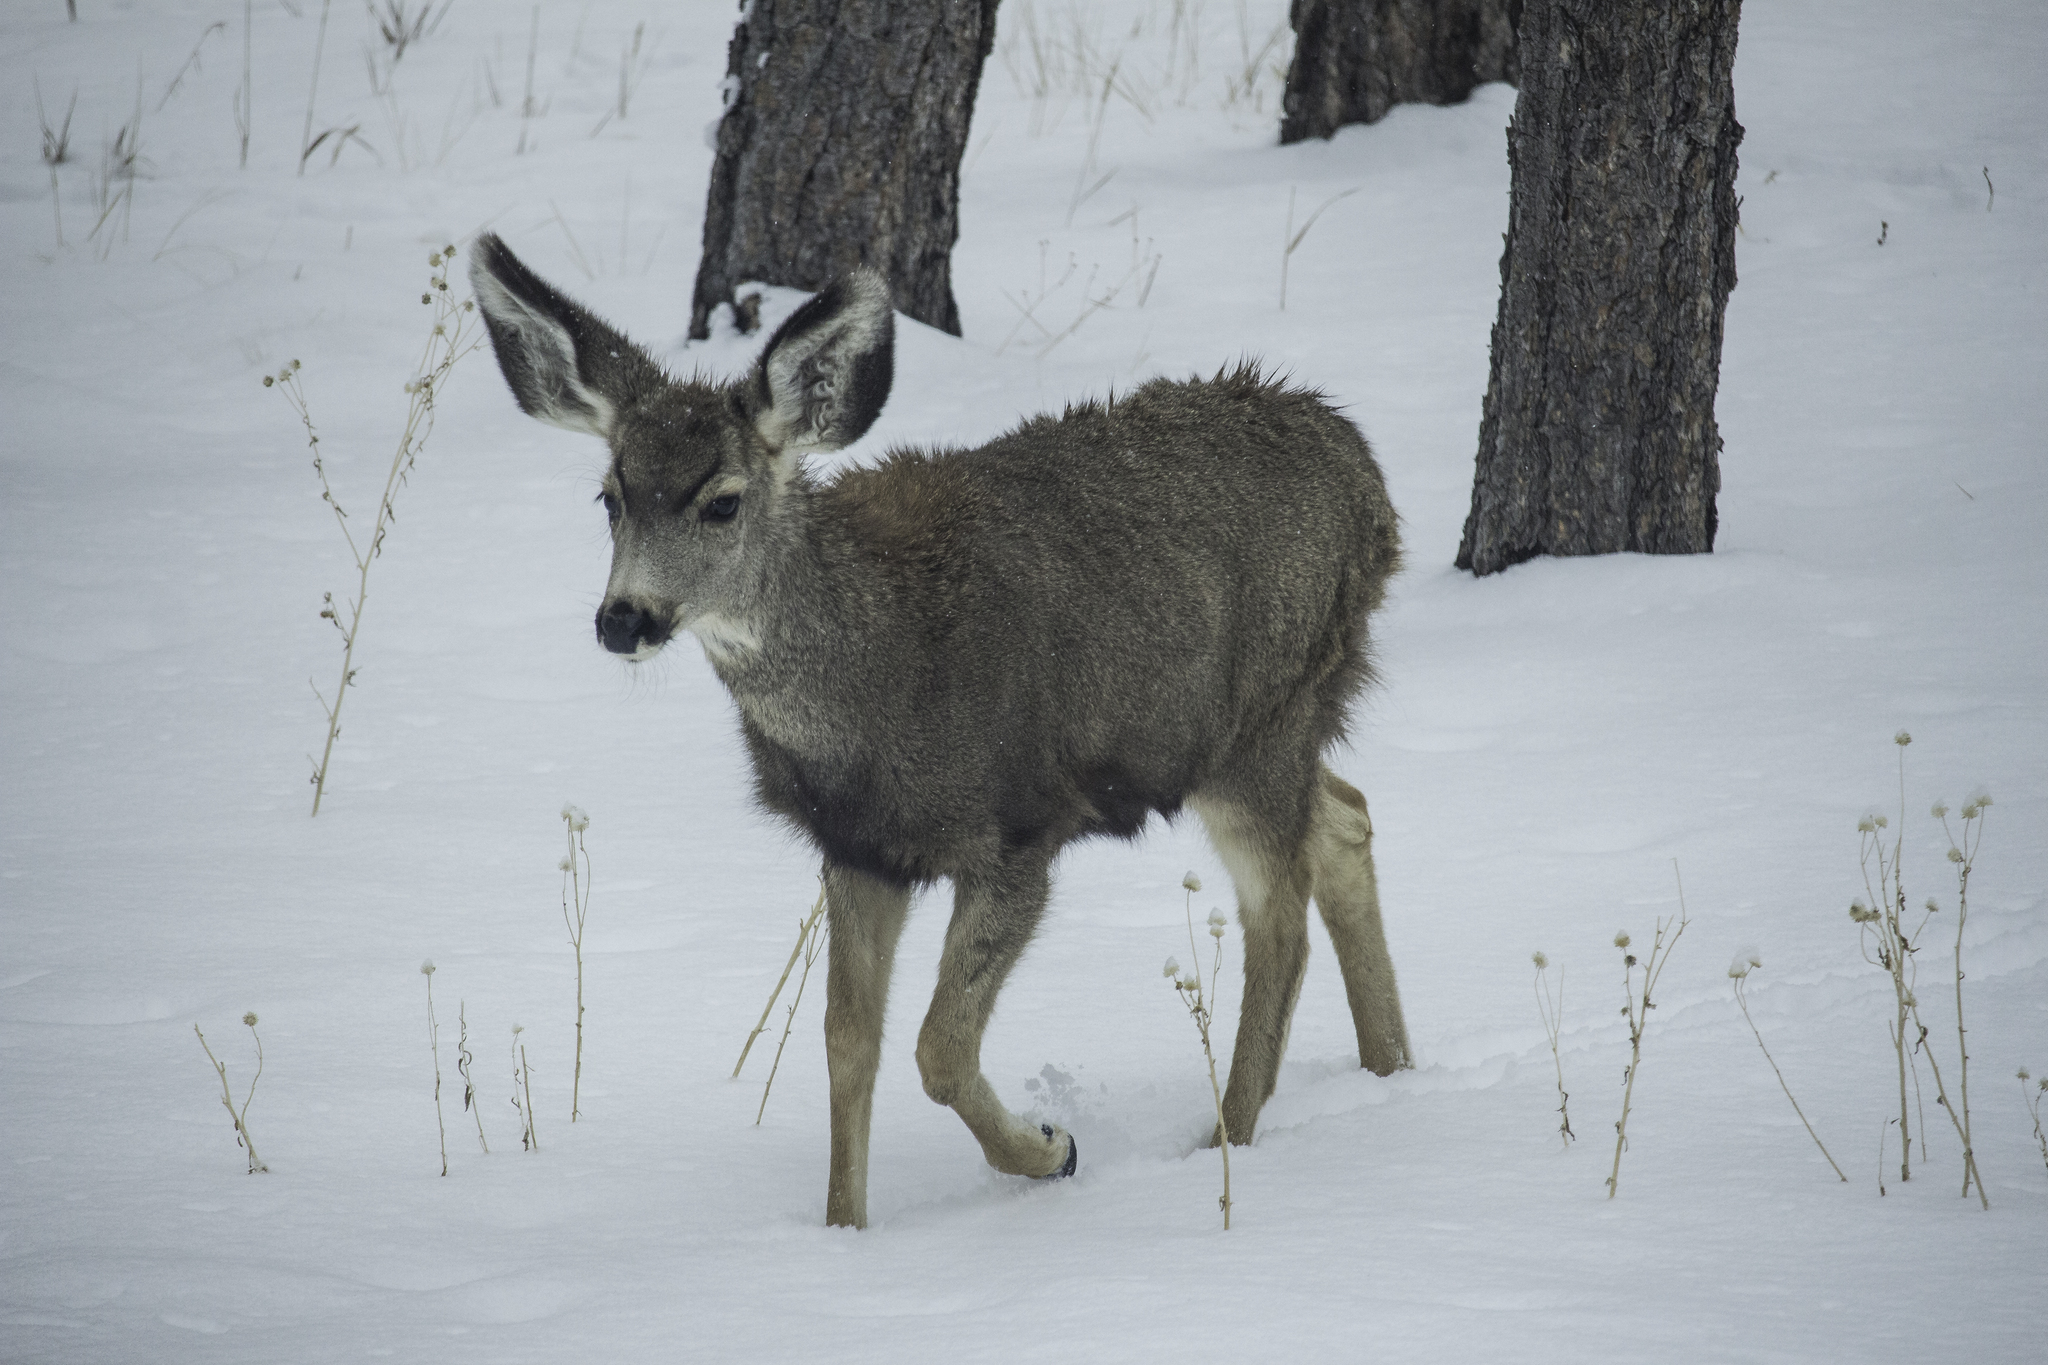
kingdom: Animalia
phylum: Chordata
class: Mammalia
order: Artiodactyla
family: Cervidae
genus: Odocoileus
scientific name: Odocoileus hemionus
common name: Mule deer
